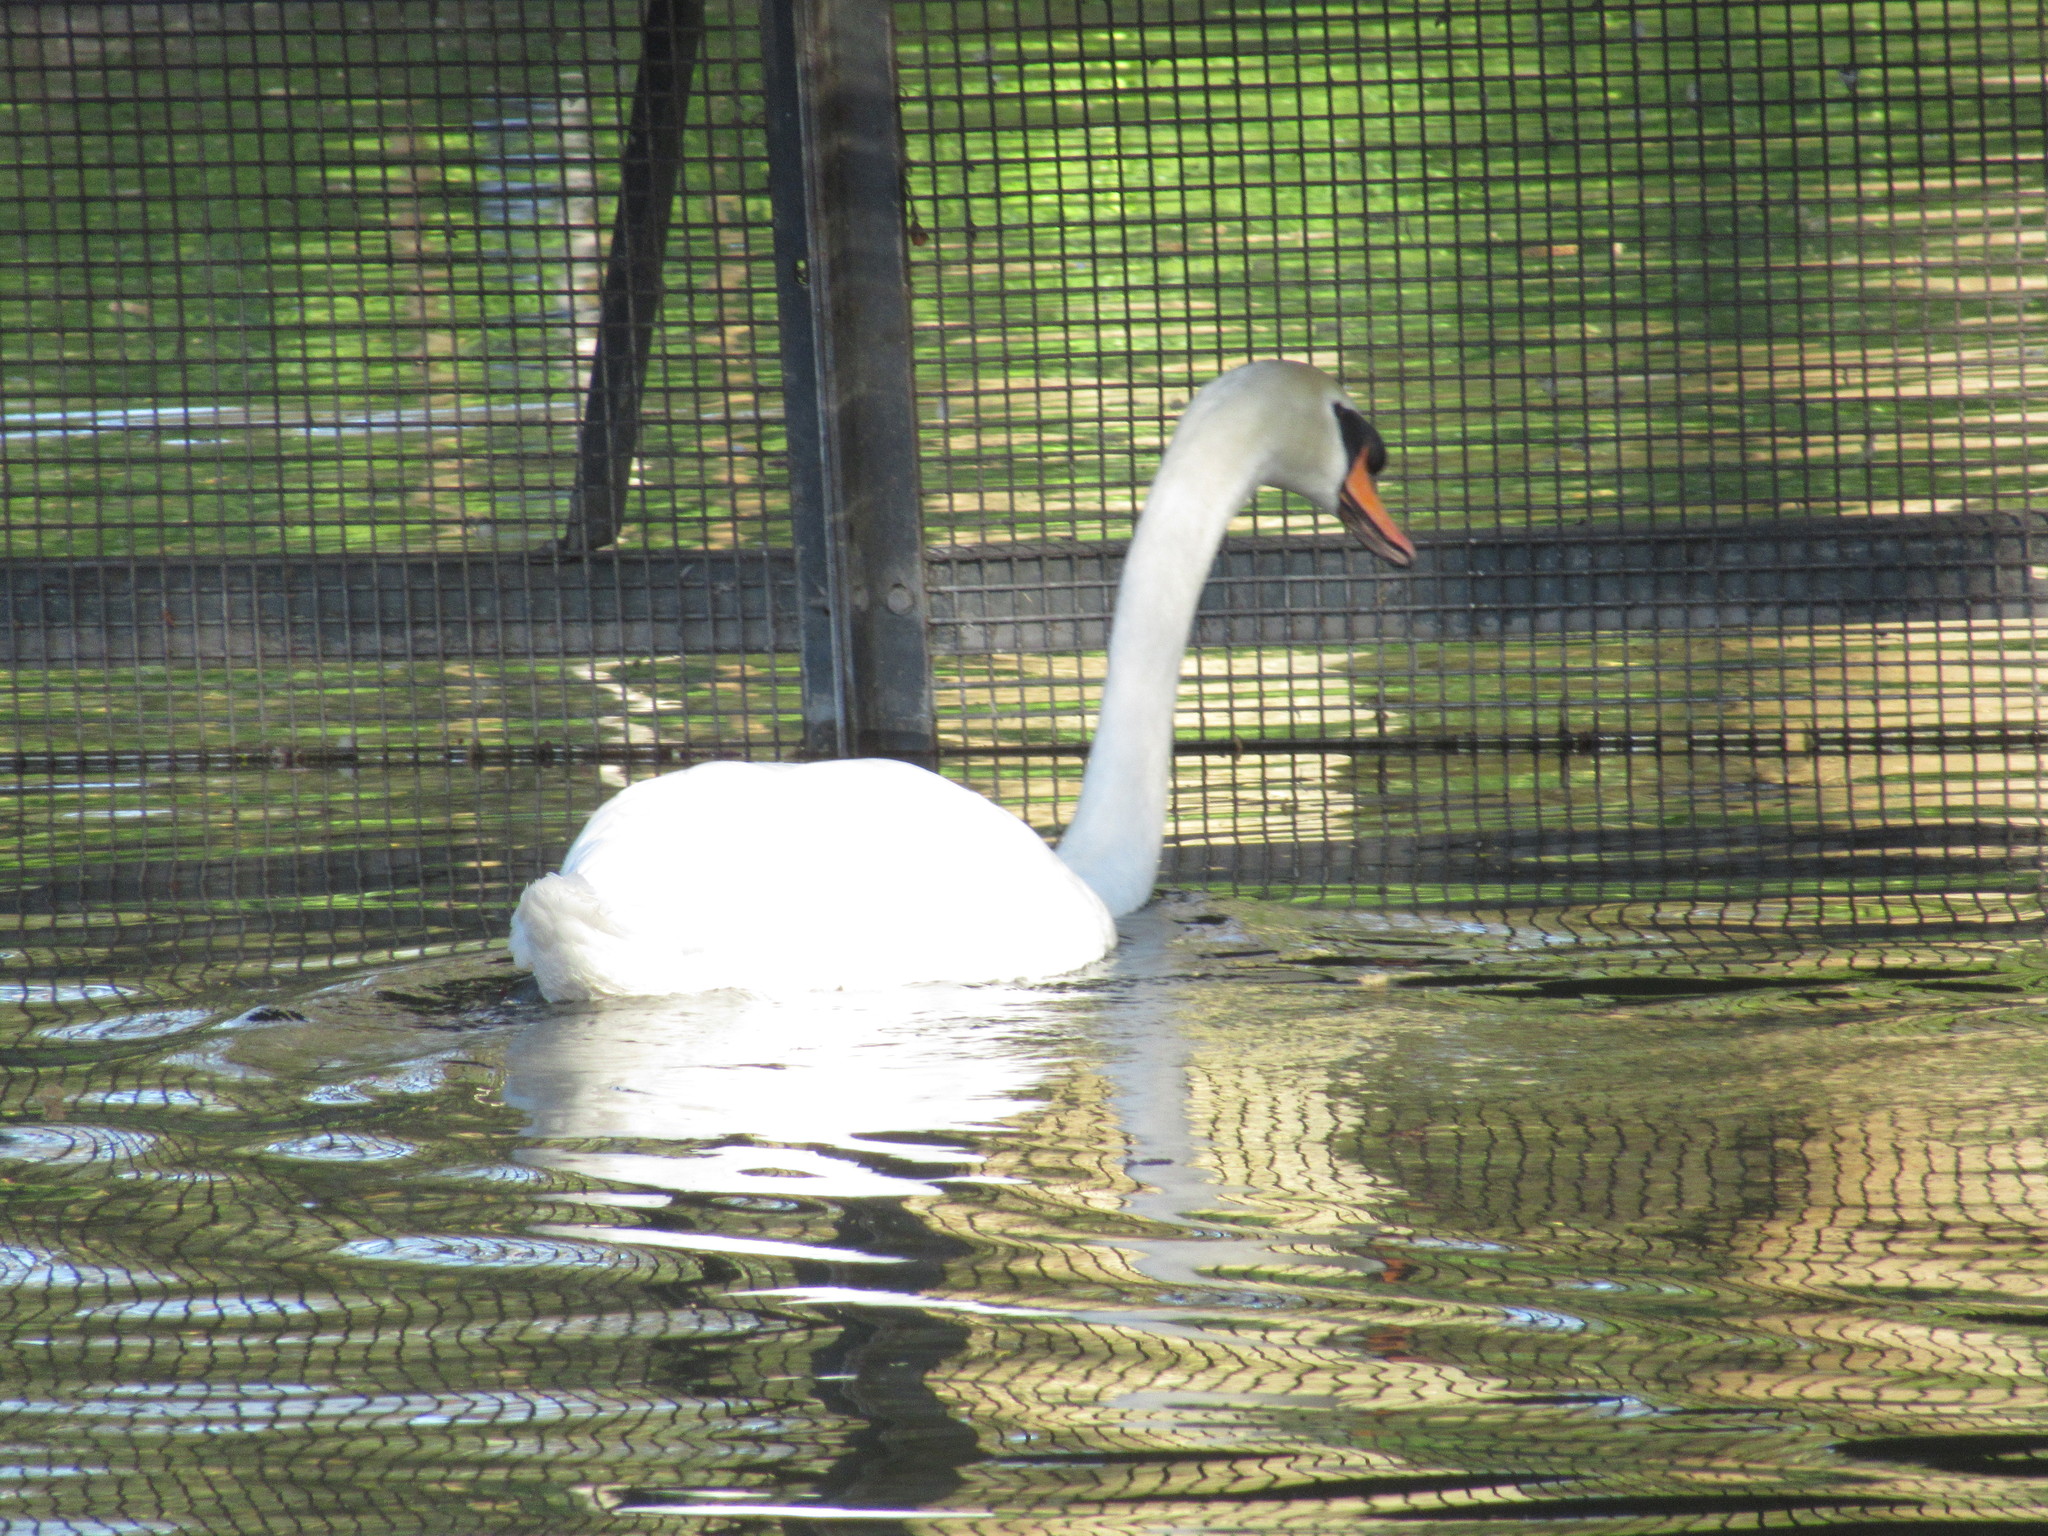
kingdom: Animalia
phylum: Chordata
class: Aves
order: Anseriformes
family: Anatidae
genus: Cygnus
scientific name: Cygnus olor
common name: Mute swan
